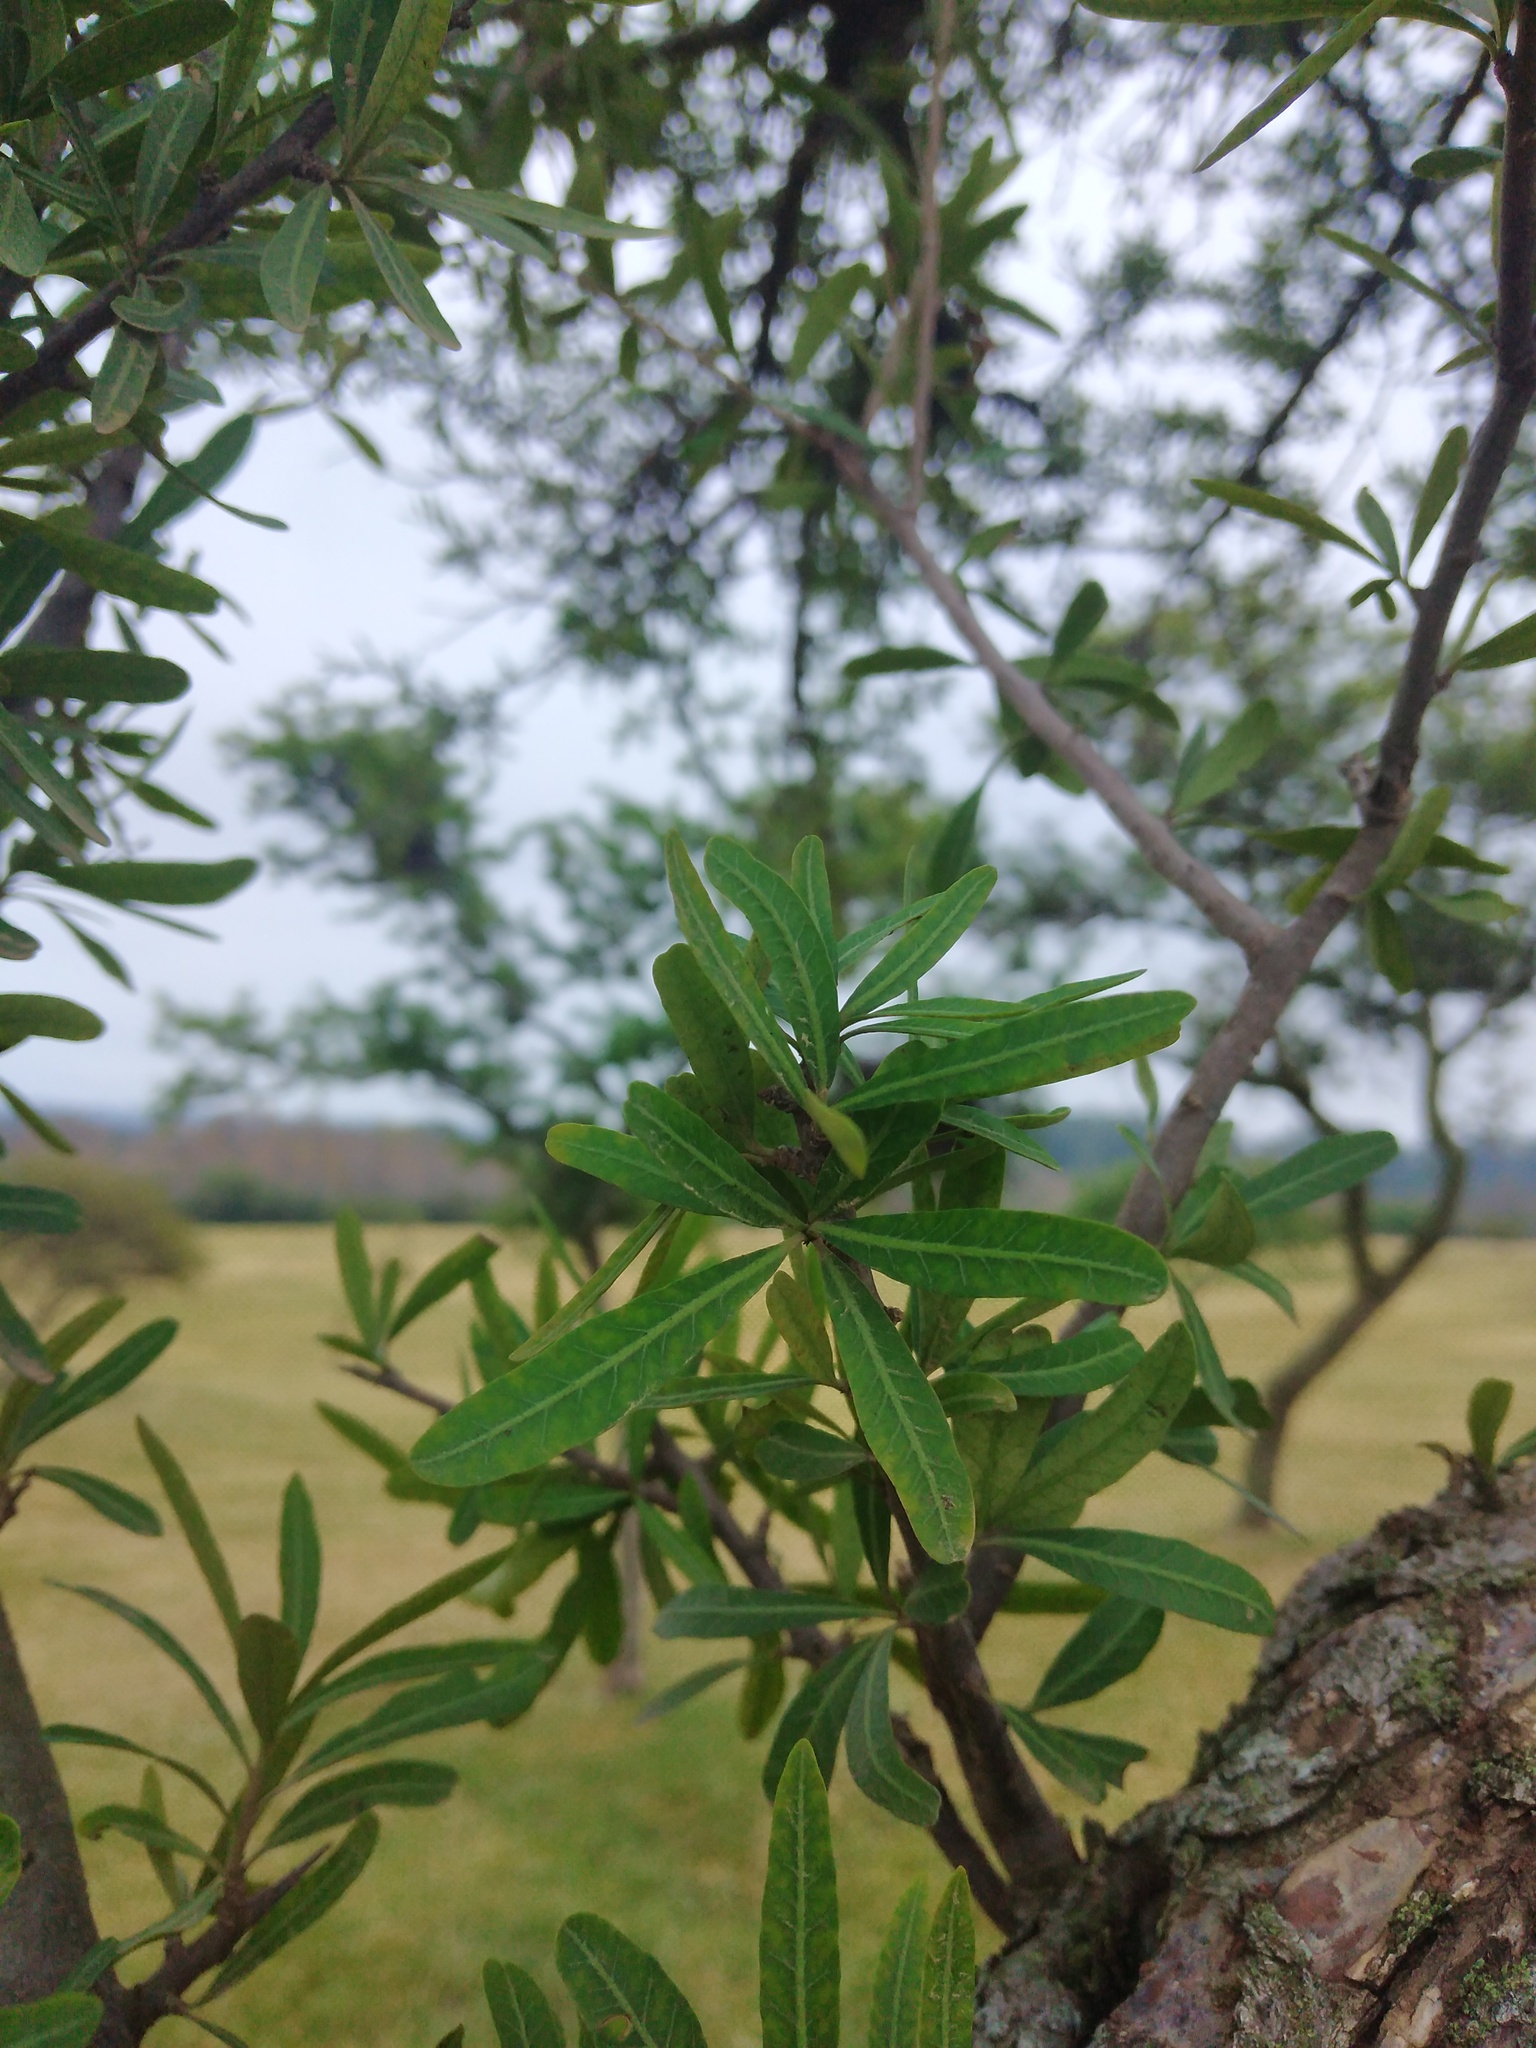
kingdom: Plantae
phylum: Tracheophyta
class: Magnoliopsida
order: Sapindales
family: Anacardiaceae
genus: Schinus
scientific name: Schinus longifolia
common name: Longleaf peppertree
